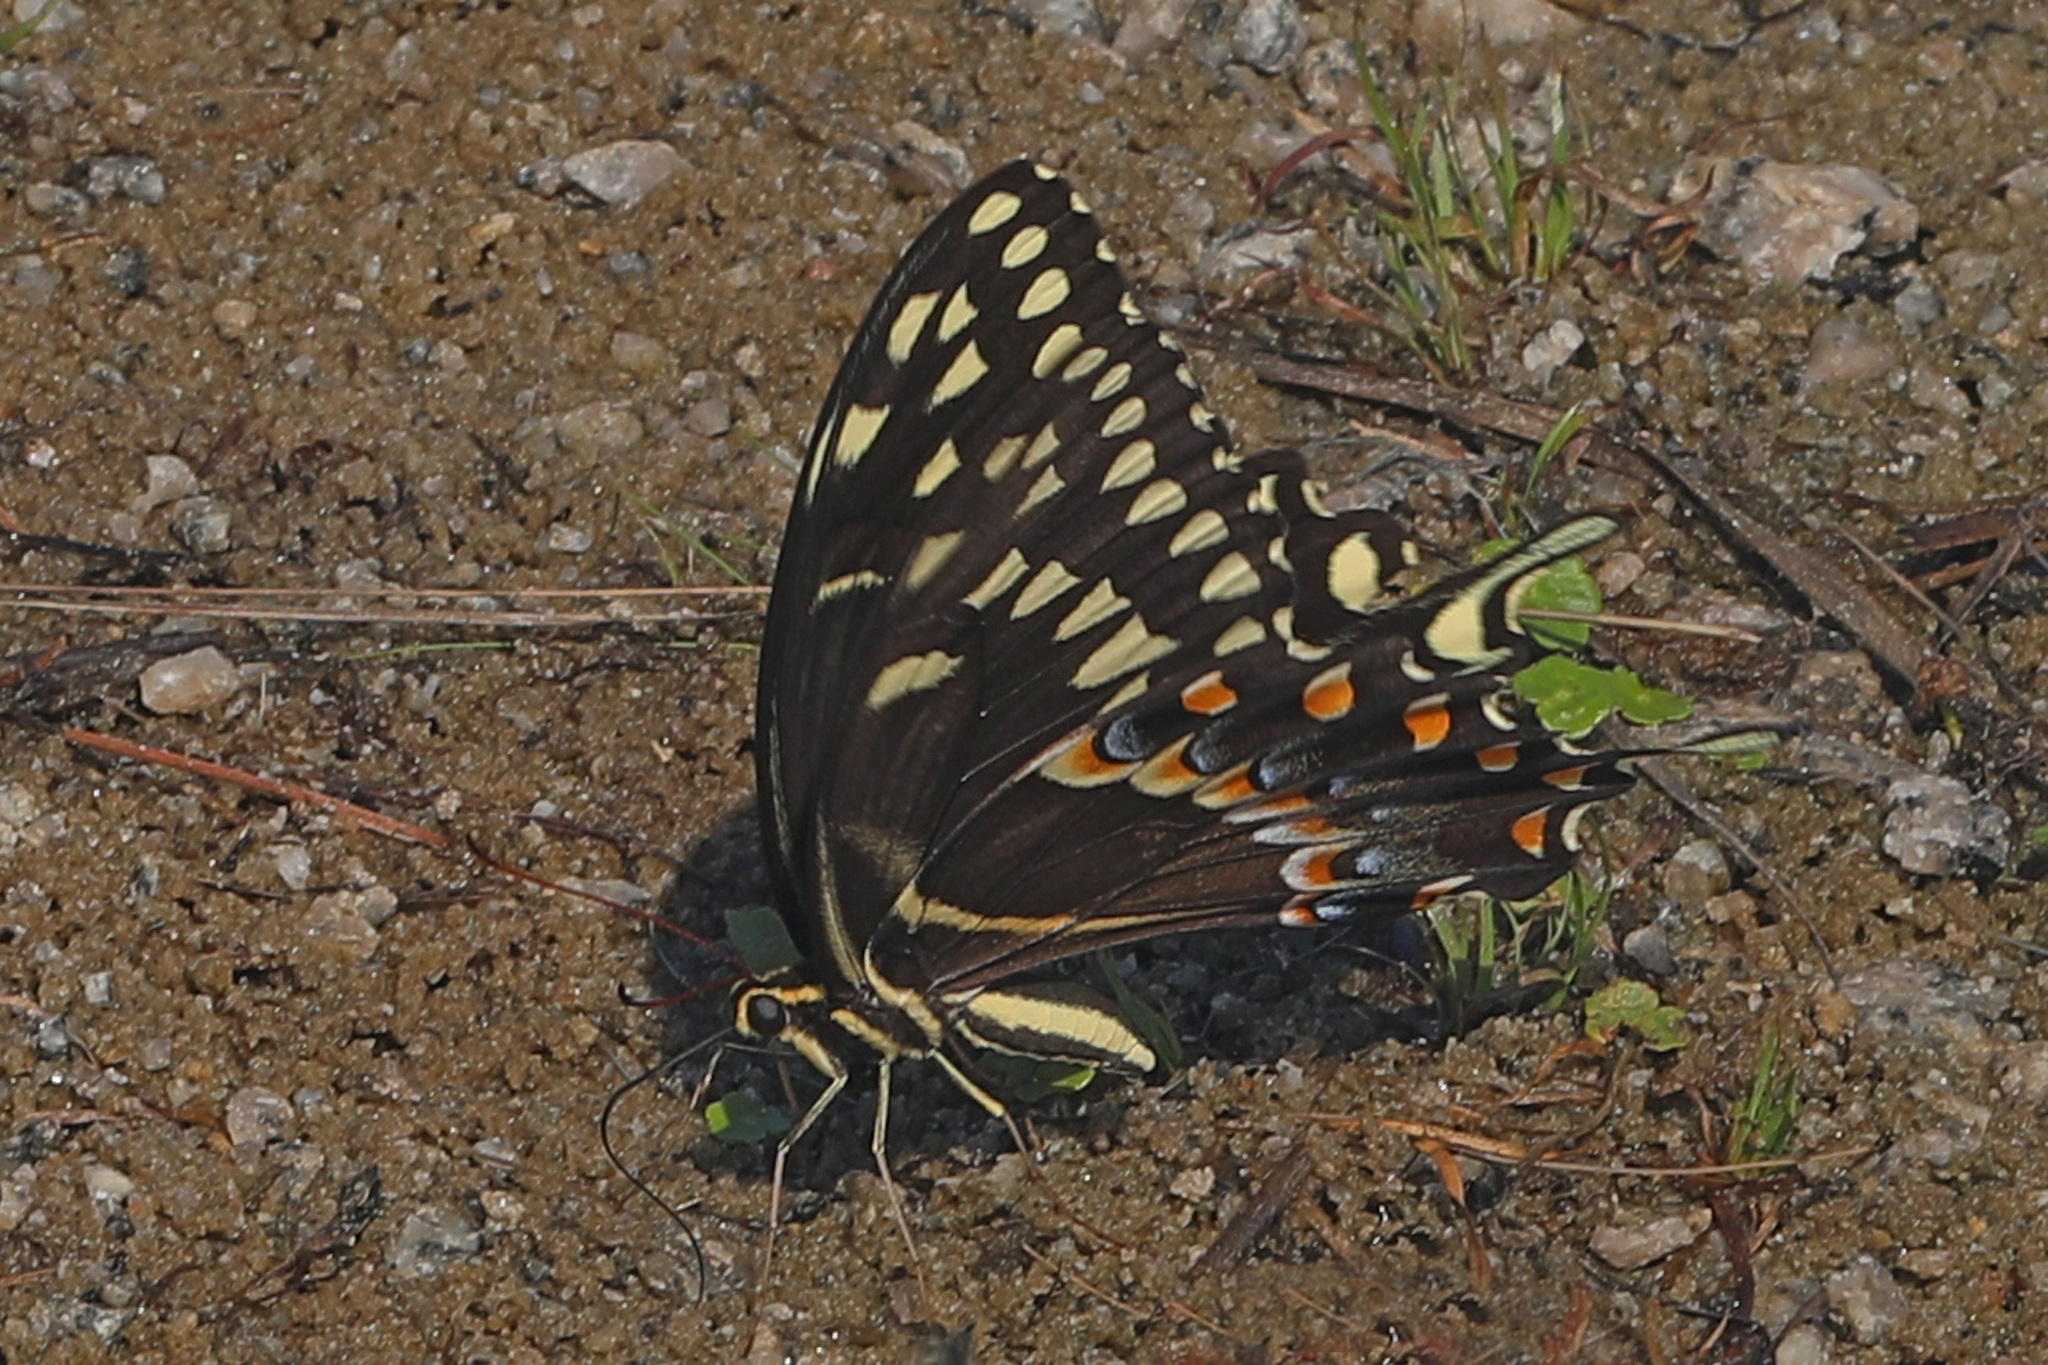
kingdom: Animalia
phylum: Arthropoda
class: Insecta
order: Lepidoptera
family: Papilionidae
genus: Papilio
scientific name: Papilio palamedes
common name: Palamedes swallowtail
